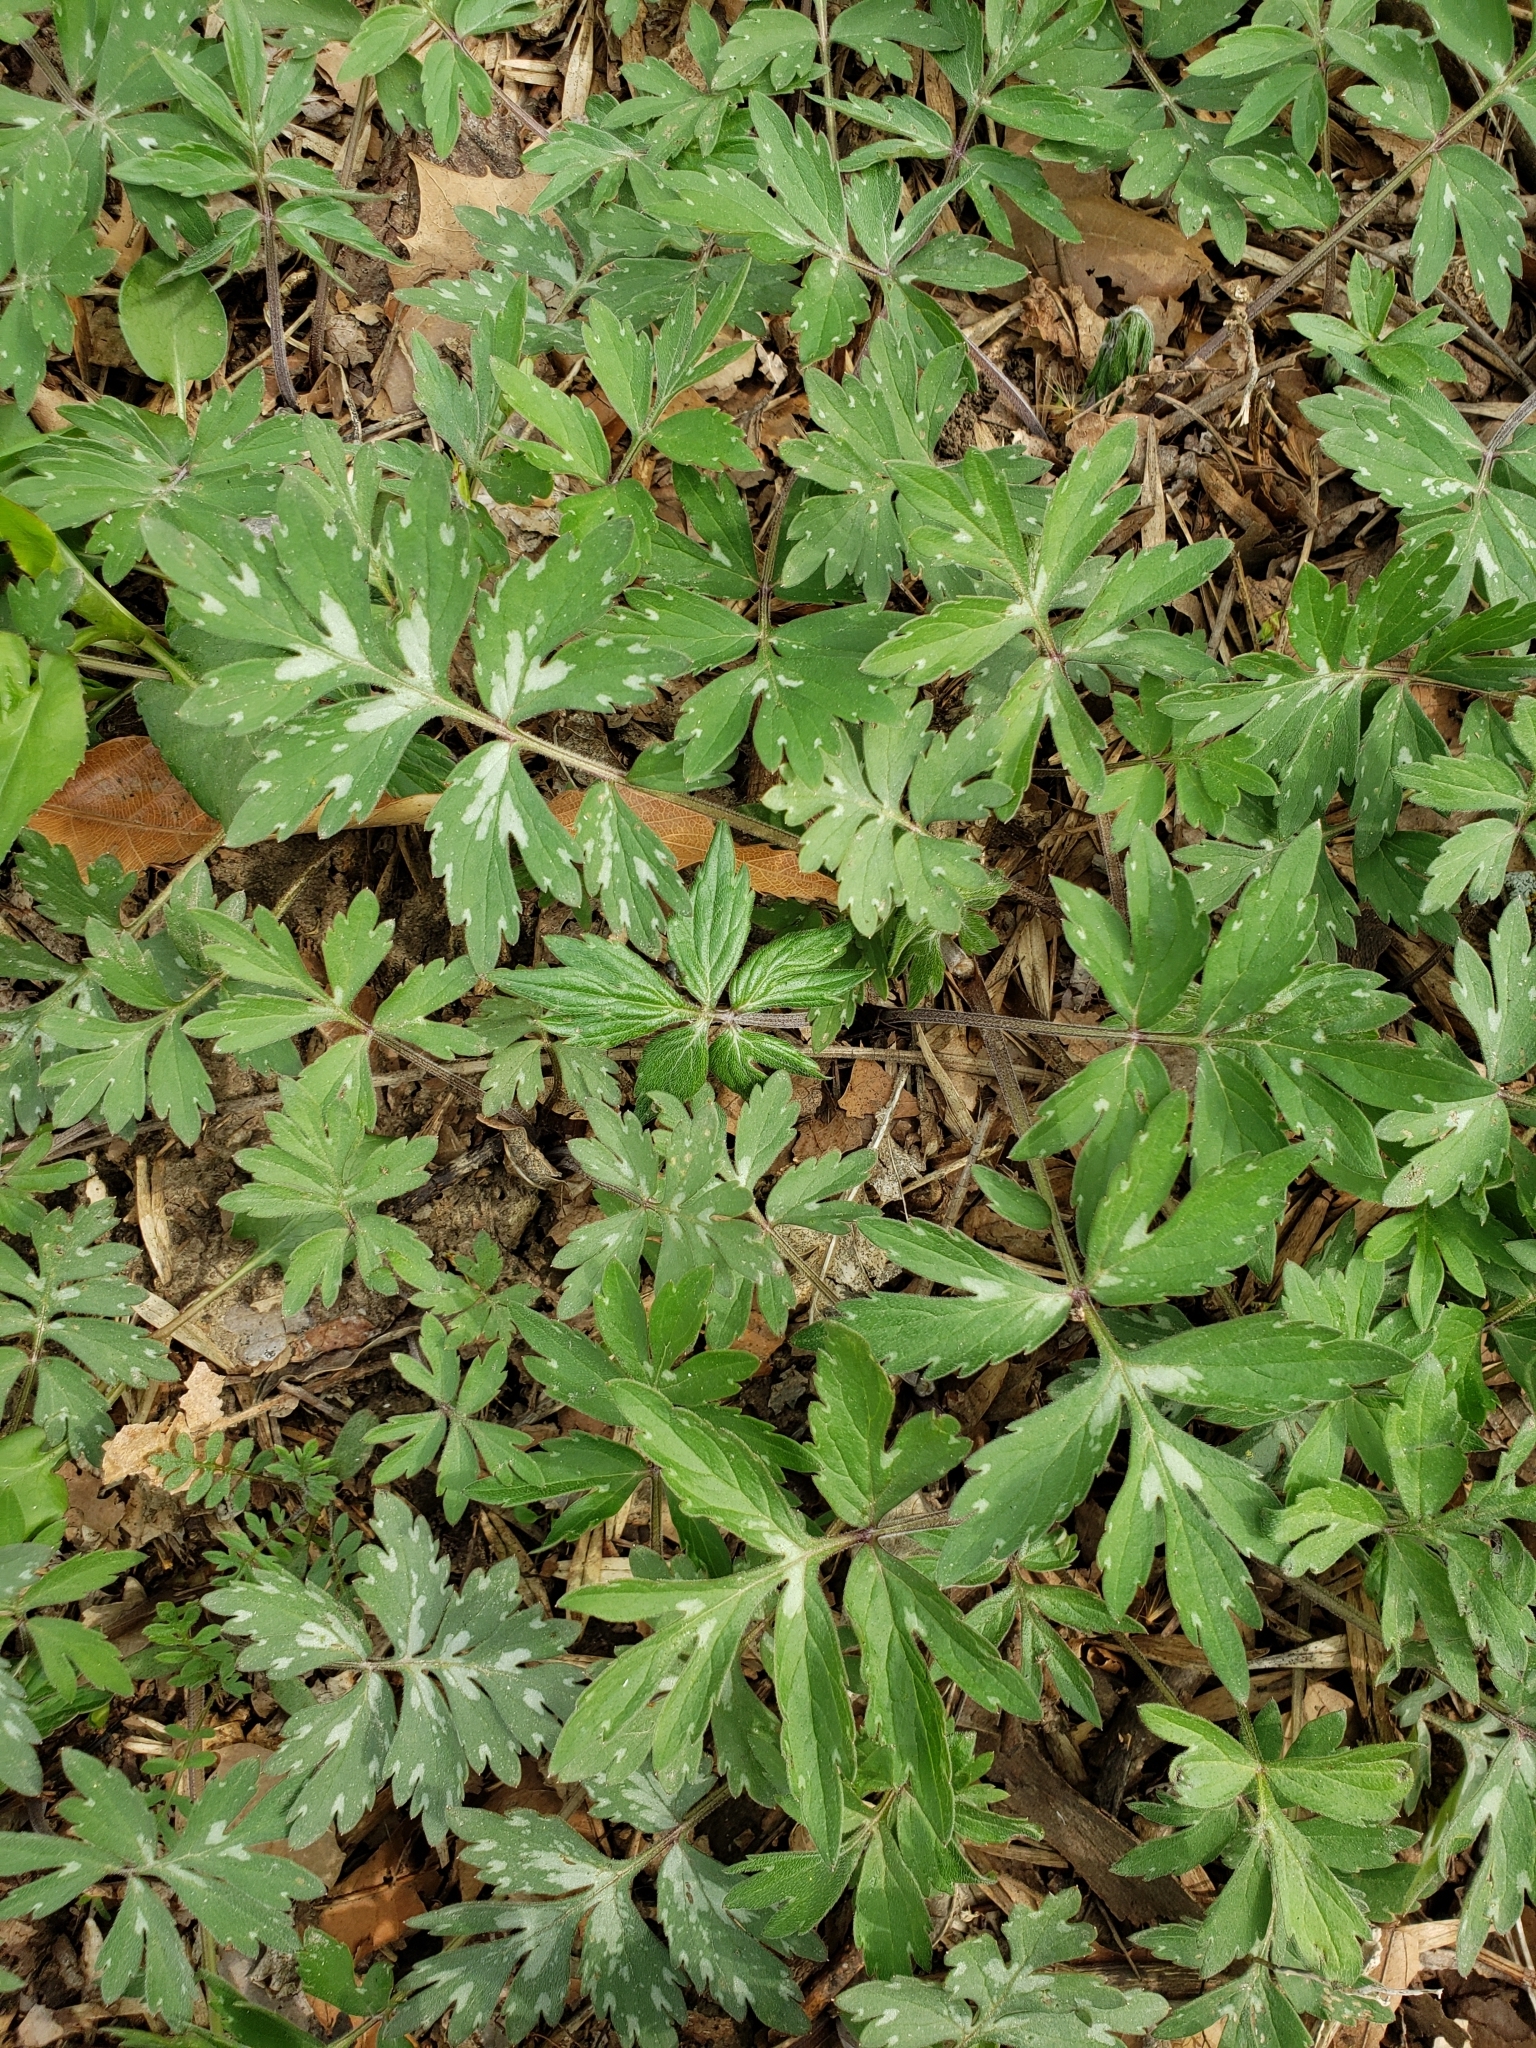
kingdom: Plantae
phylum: Tracheophyta
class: Magnoliopsida
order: Boraginales
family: Hydrophyllaceae
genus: Hydrophyllum
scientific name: Hydrophyllum virginianum
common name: Virginia waterleaf
